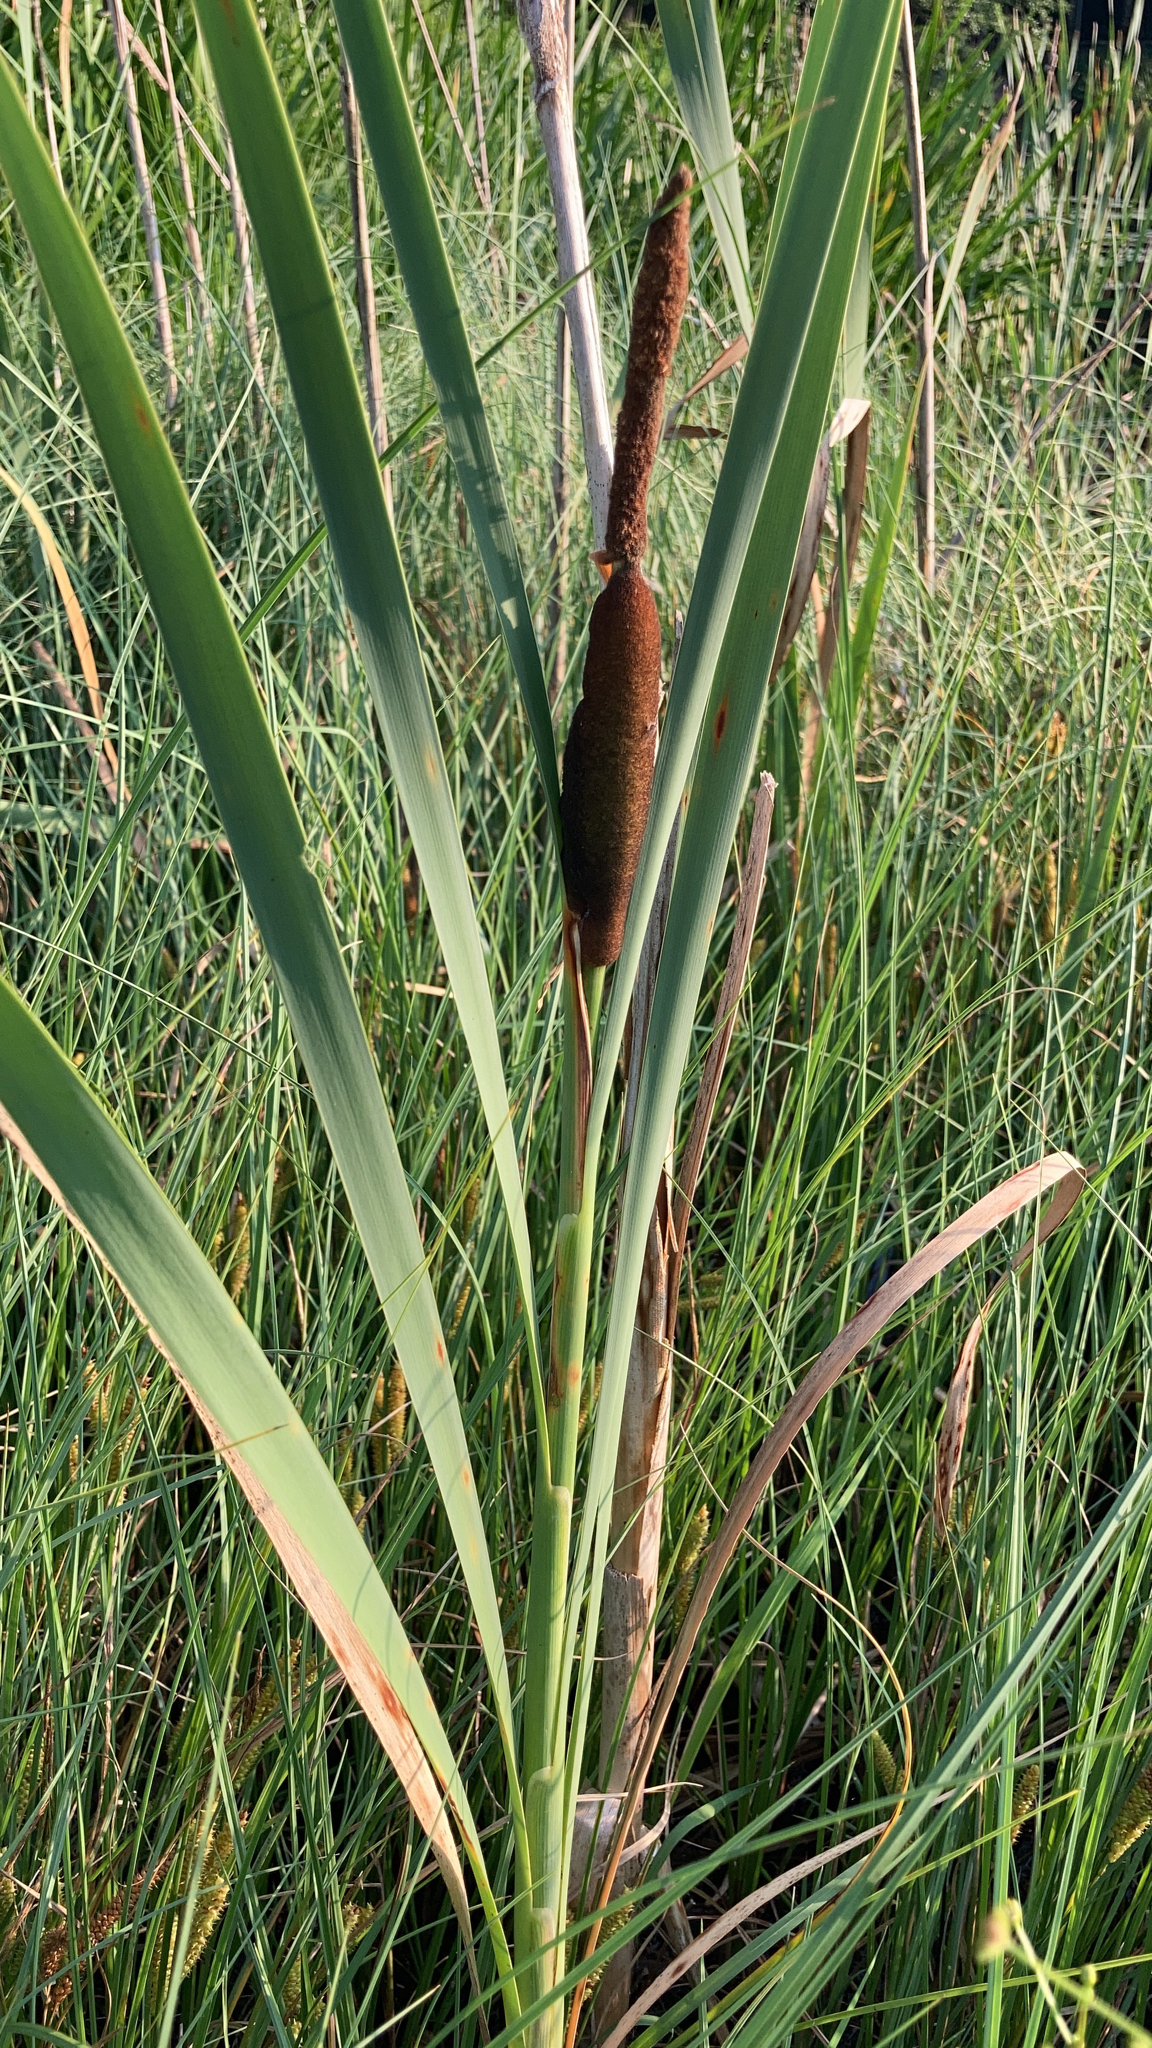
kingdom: Plantae
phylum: Tracheophyta
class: Liliopsida
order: Poales
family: Typhaceae
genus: Typha
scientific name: Typha latifolia
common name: Broadleaf cattail
